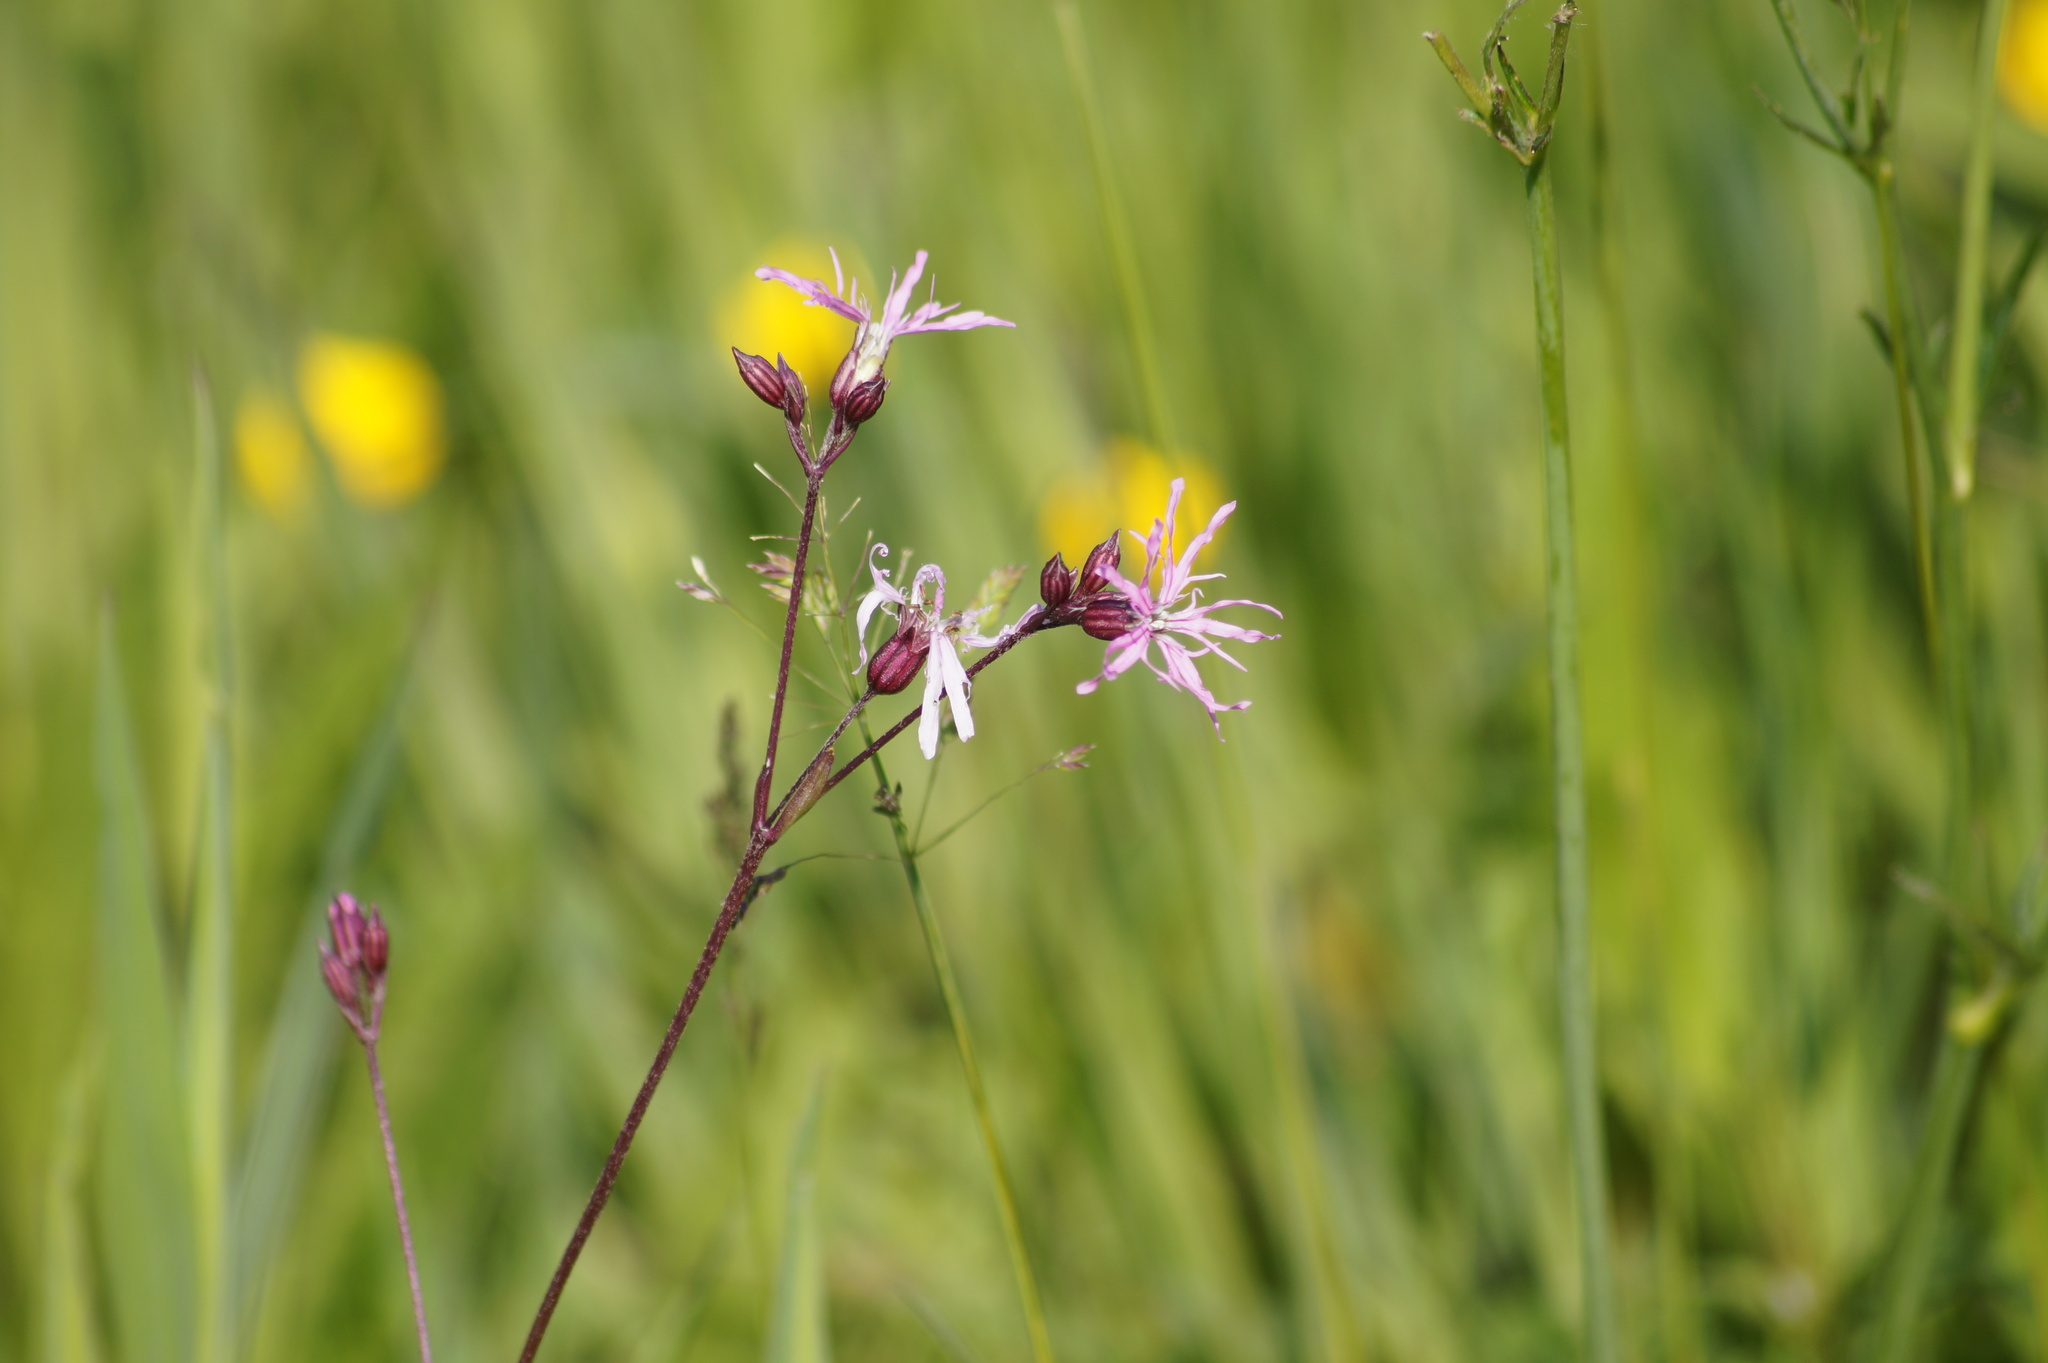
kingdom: Plantae
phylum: Tracheophyta
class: Magnoliopsida
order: Caryophyllales
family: Caryophyllaceae
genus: Silene
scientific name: Silene flos-cuculi
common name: Ragged-robin
